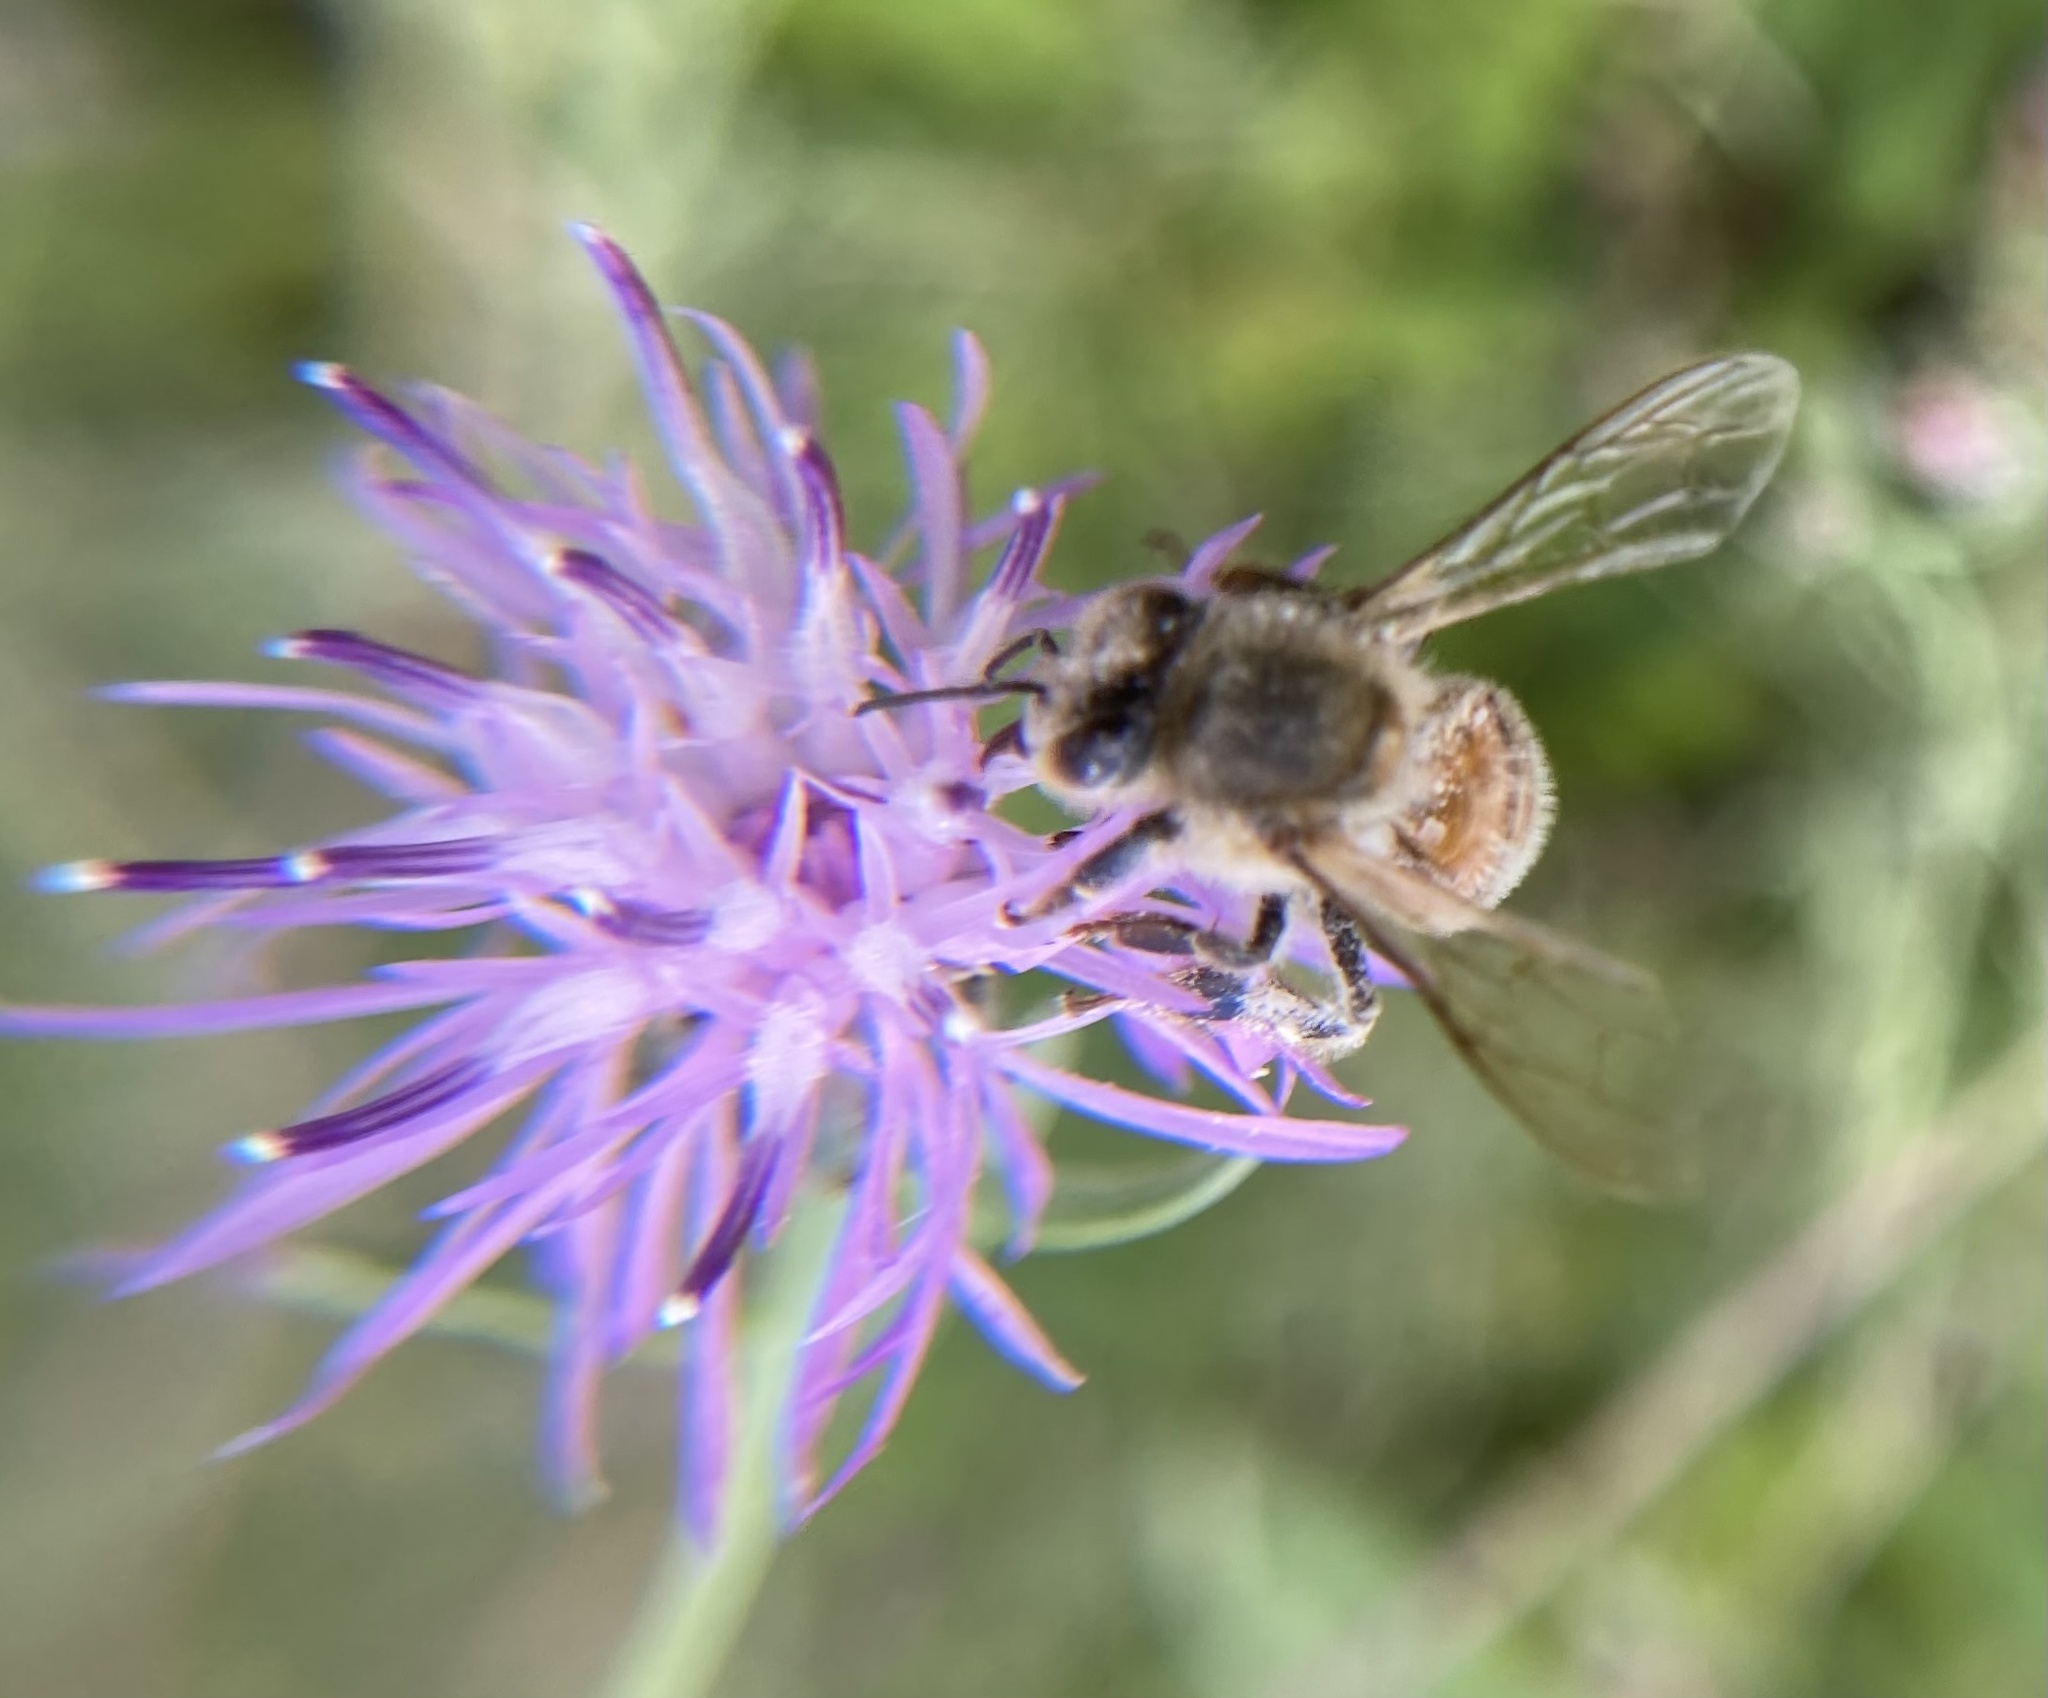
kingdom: Animalia
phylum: Arthropoda
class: Insecta
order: Hymenoptera
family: Apidae
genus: Apis
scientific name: Apis mellifera
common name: Honey bee
